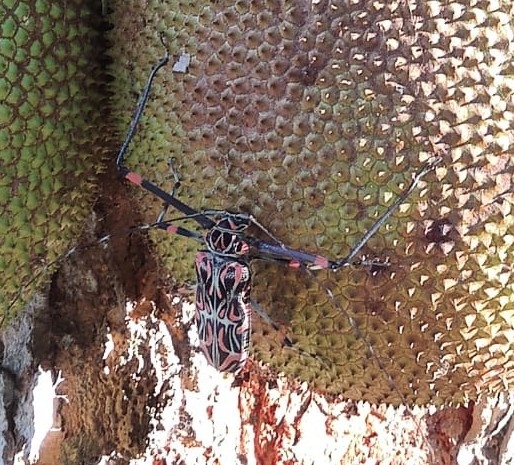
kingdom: Animalia
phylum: Arthropoda
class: Insecta
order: Coleoptera
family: Cerambycidae
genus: Acrocinus
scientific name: Acrocinus longimanus
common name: Arlequin
